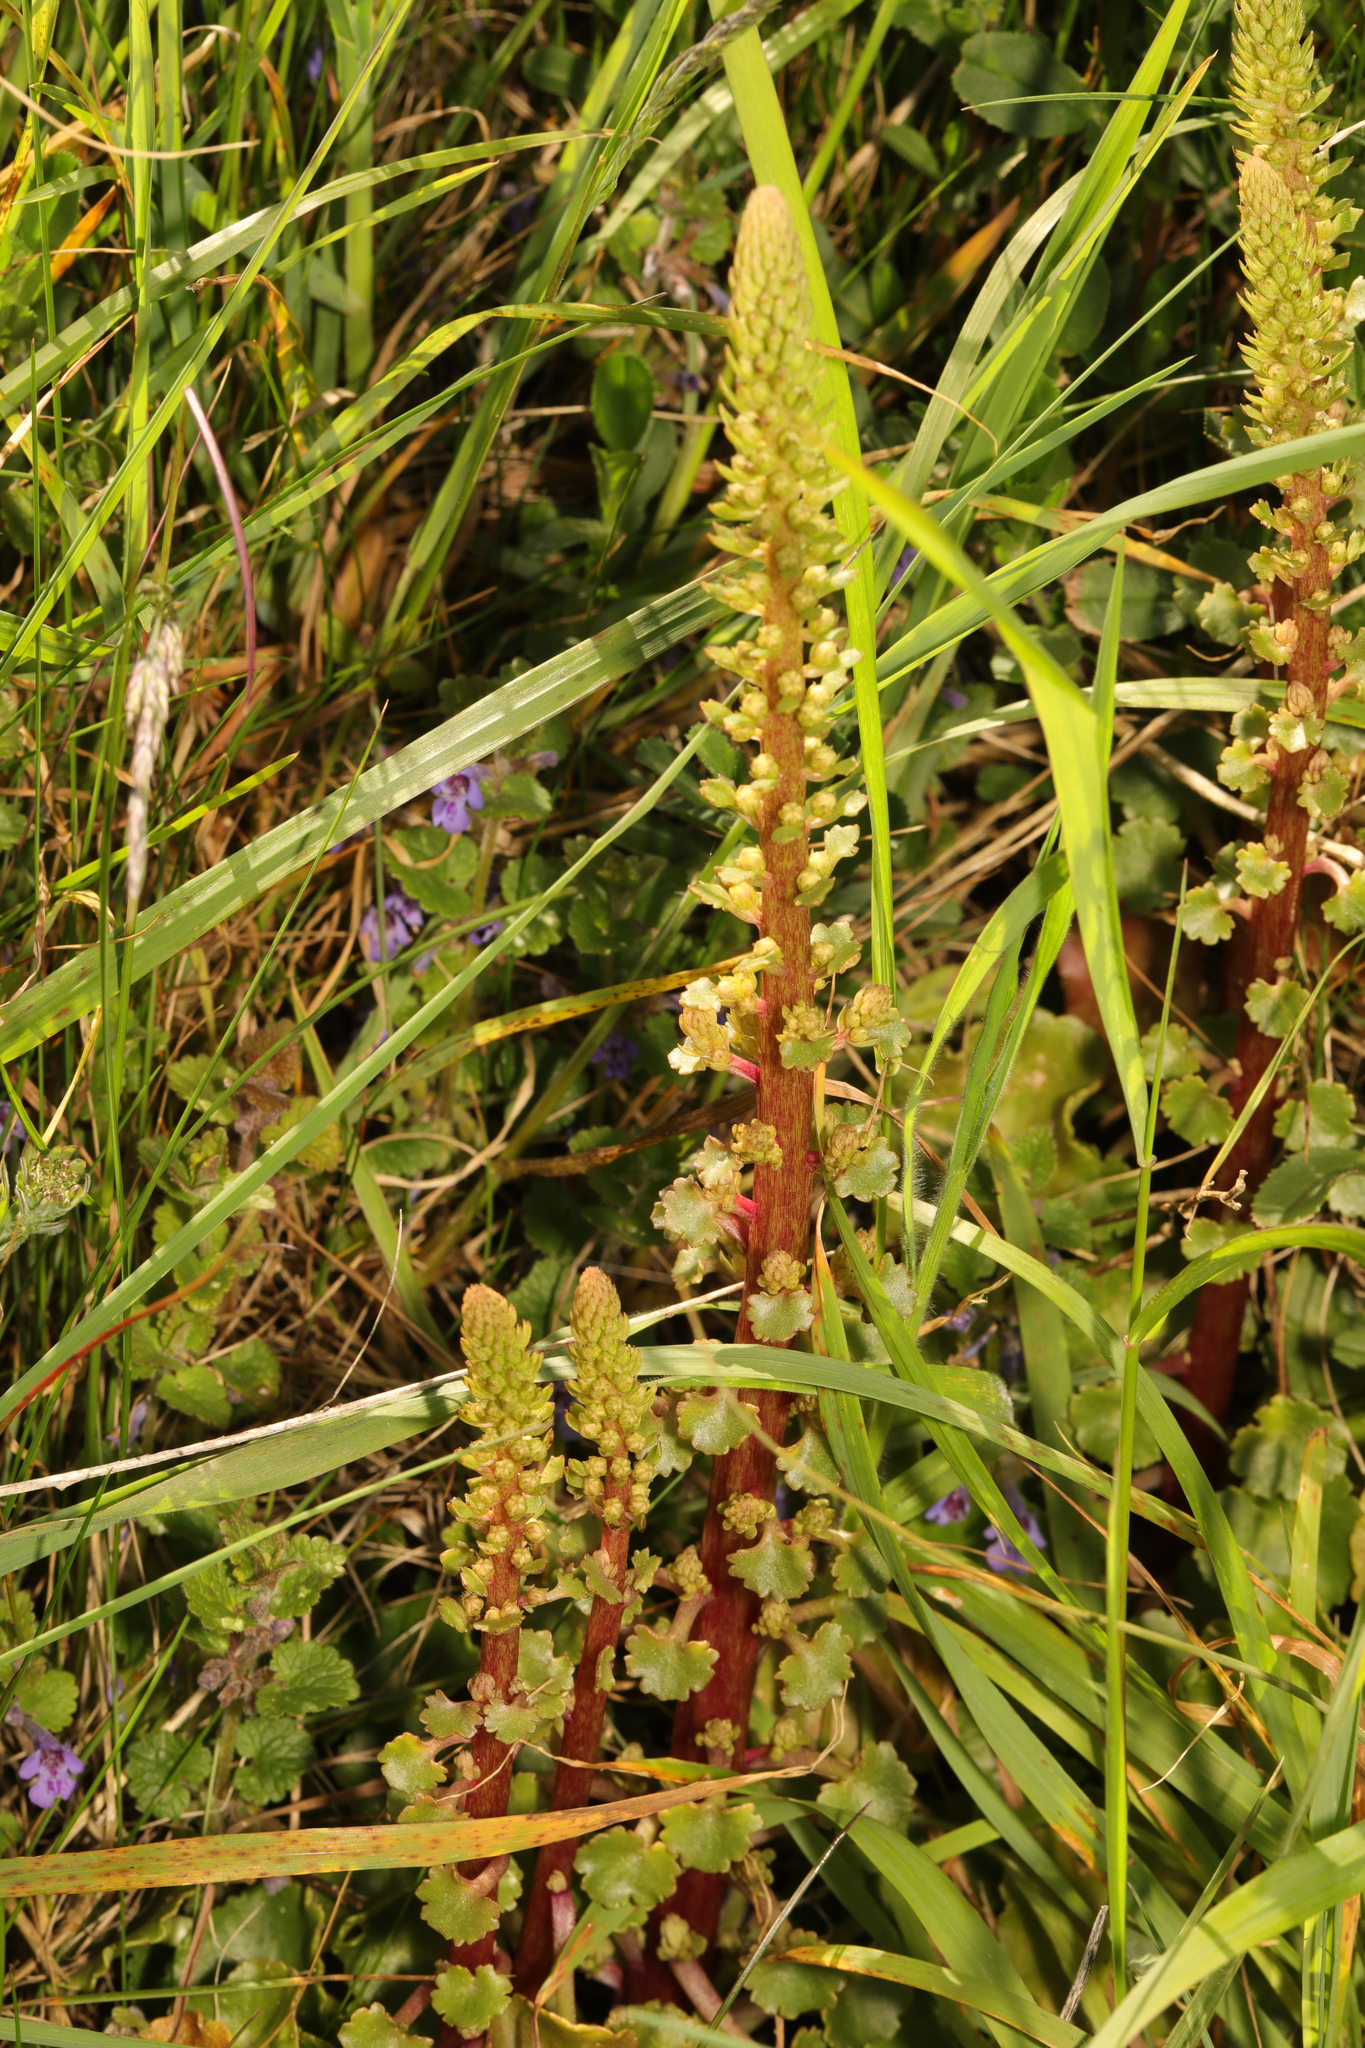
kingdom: Plantae
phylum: Tracheophyta
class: Magnoliopsida
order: Saxifragales
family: Crassulaceae
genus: Umbilicus
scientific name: Umbilicus rupestris
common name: Navelwort
